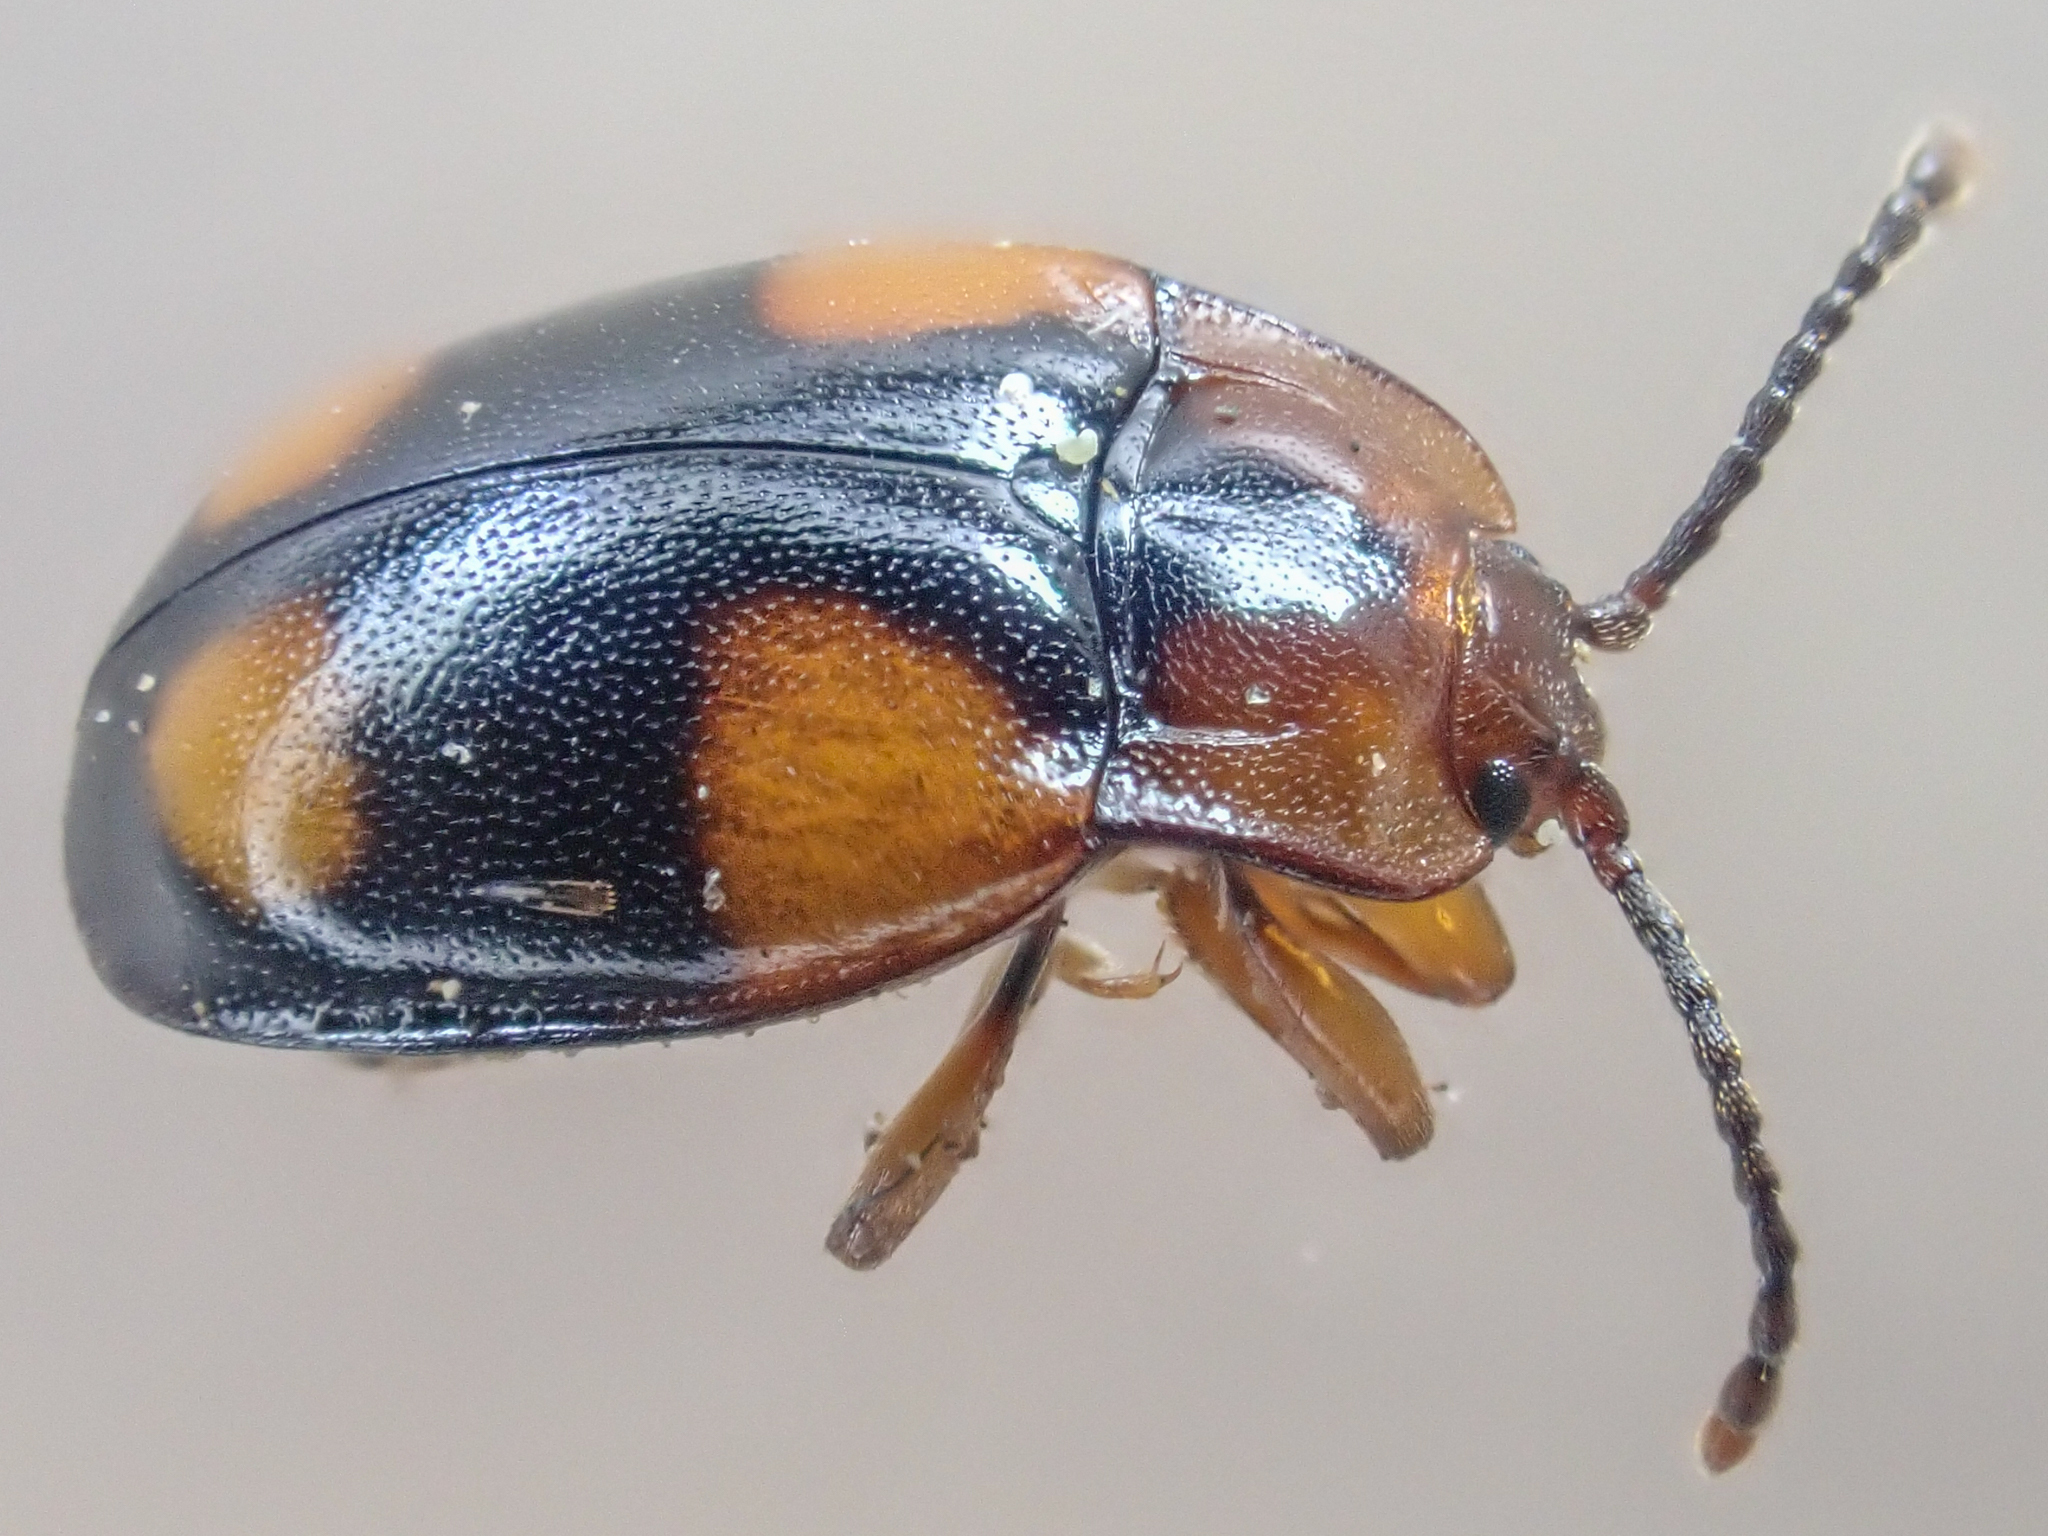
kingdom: Animalia
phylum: Arthropoda
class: Insecta
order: Coleoptera
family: Endomychidae
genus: Mycetina
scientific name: Mycetina hornii
